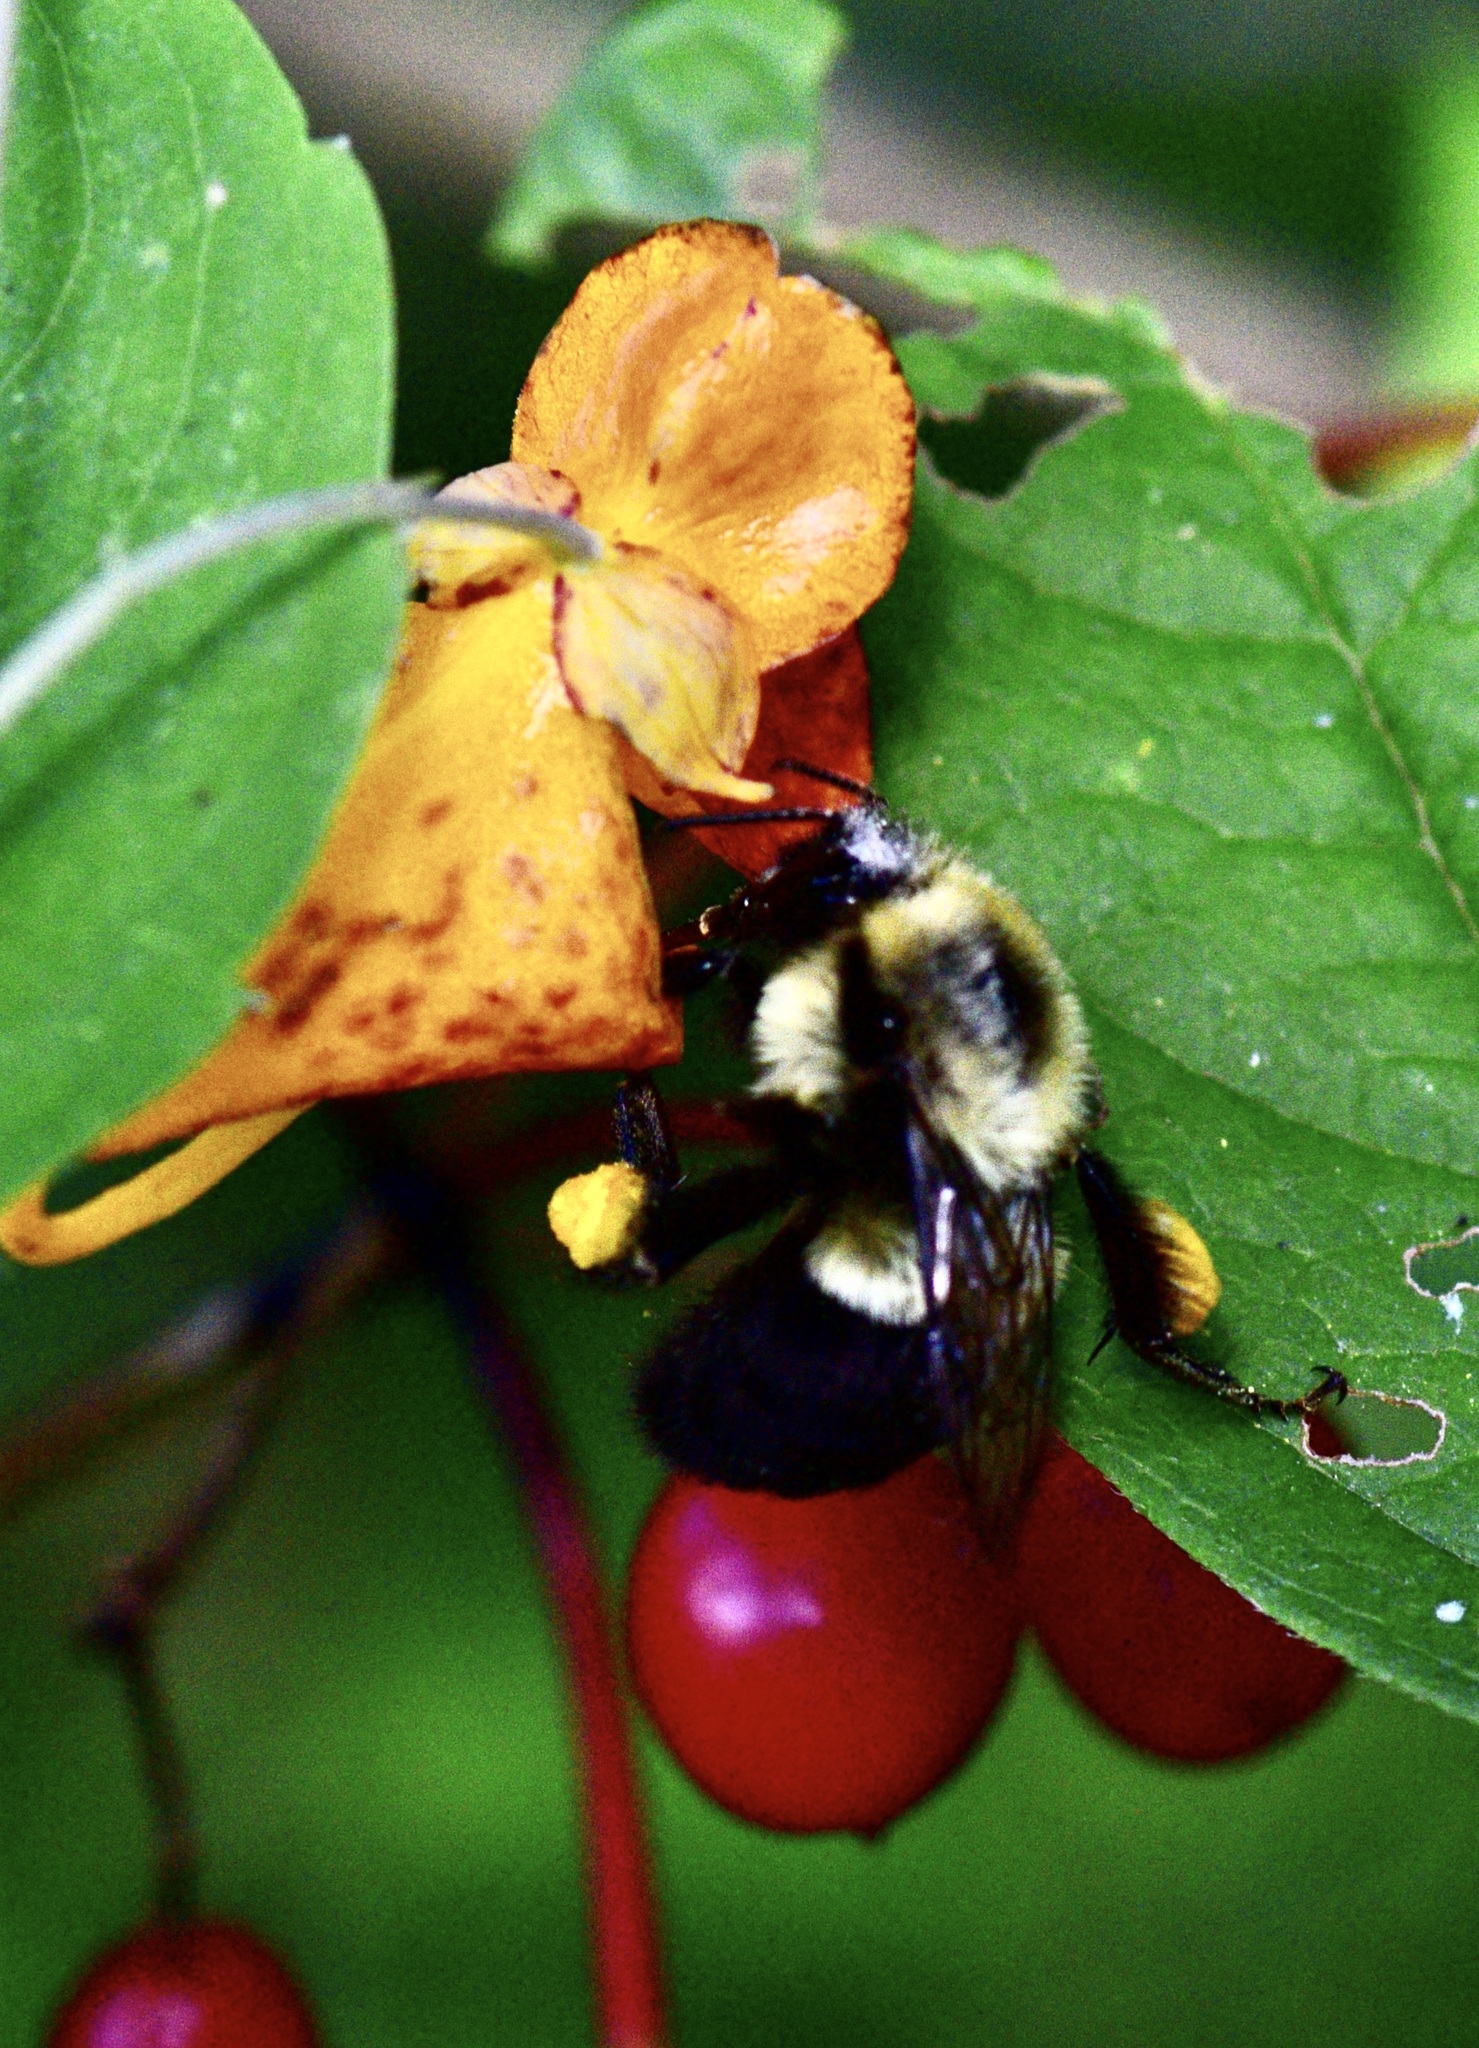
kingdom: Animalia
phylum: Arthropoda
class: Insecta
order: Hymenoptera
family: Apidae
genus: Bombus
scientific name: Bombus impatiens
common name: Common eastern bumble bee
